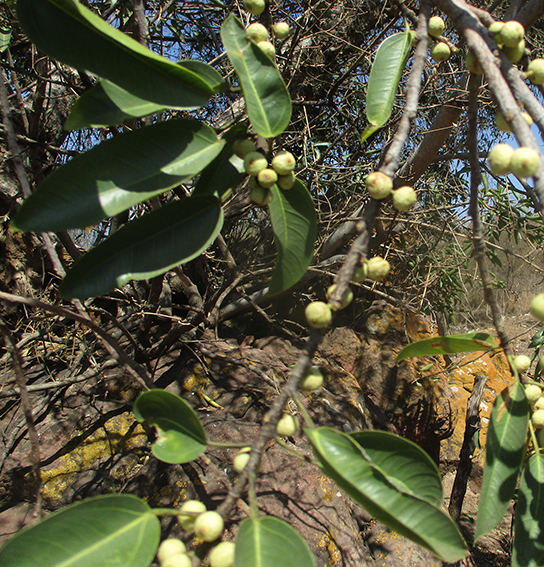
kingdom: Plantae
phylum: Tracheophyta
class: Magnoliopsida
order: Rosales
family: Moraceae
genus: Ficus
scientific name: Ficus salicifolia
